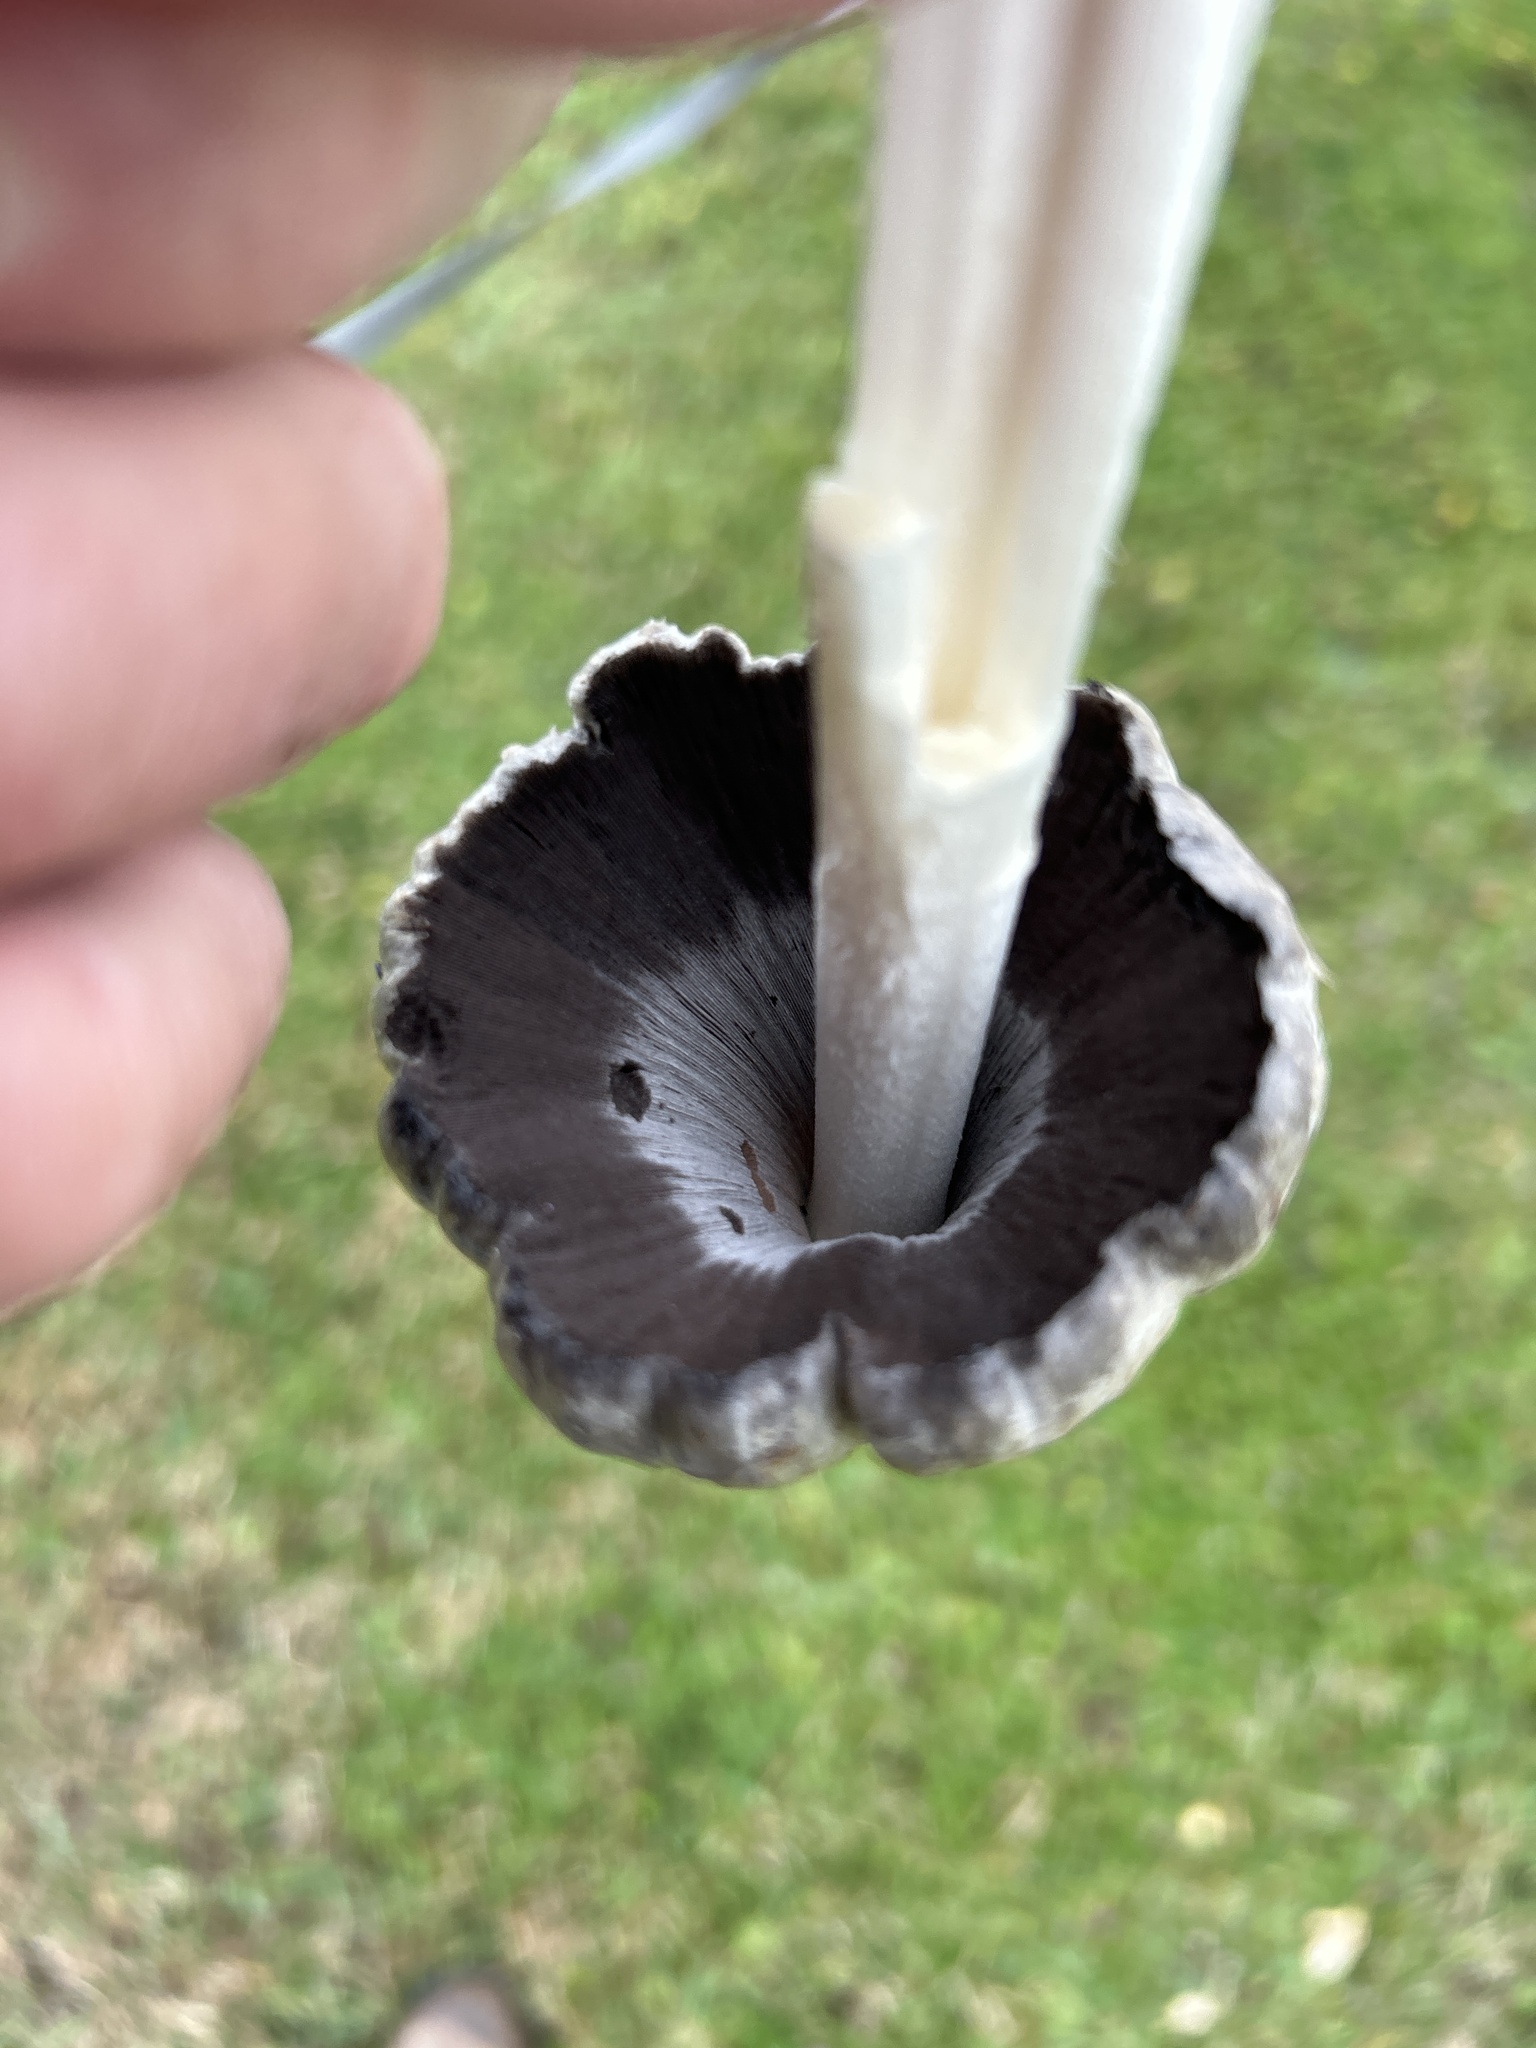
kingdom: Fungi
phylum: Basidiomycota
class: Agaricomycetes
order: Agaricales
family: Psathyrellaceae
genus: Coprinopsis
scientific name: Coprinopsis atramentaria
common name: Common ink-cap
